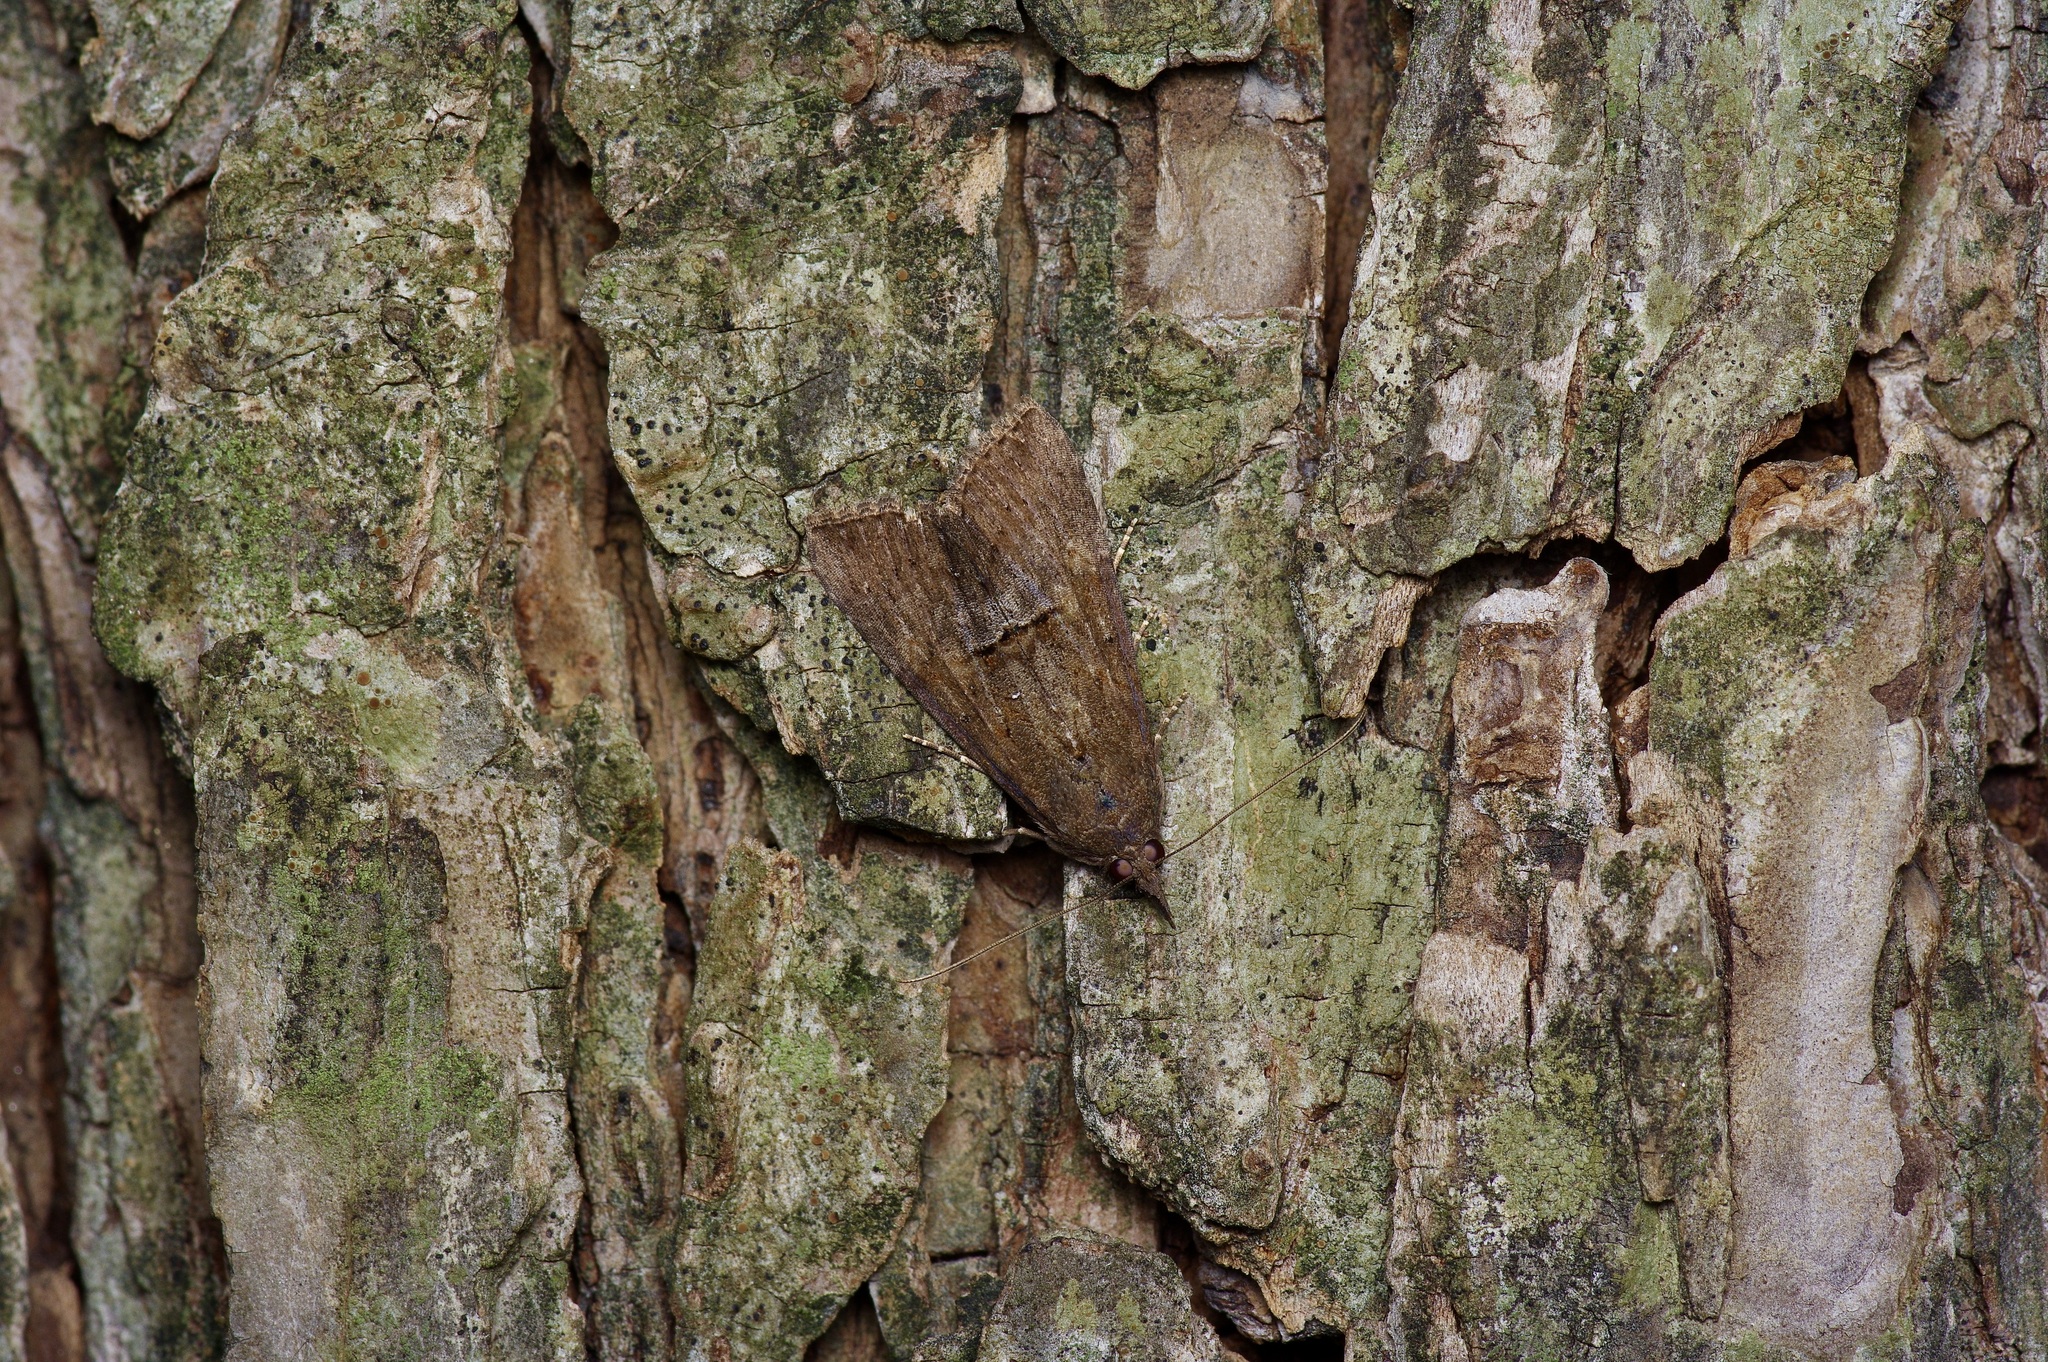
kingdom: Animalia
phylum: Arthropoda
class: Insecta
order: Lepidoptera
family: Erebidae
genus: Hypena
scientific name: Hypena scabra
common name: Green cloverworm
